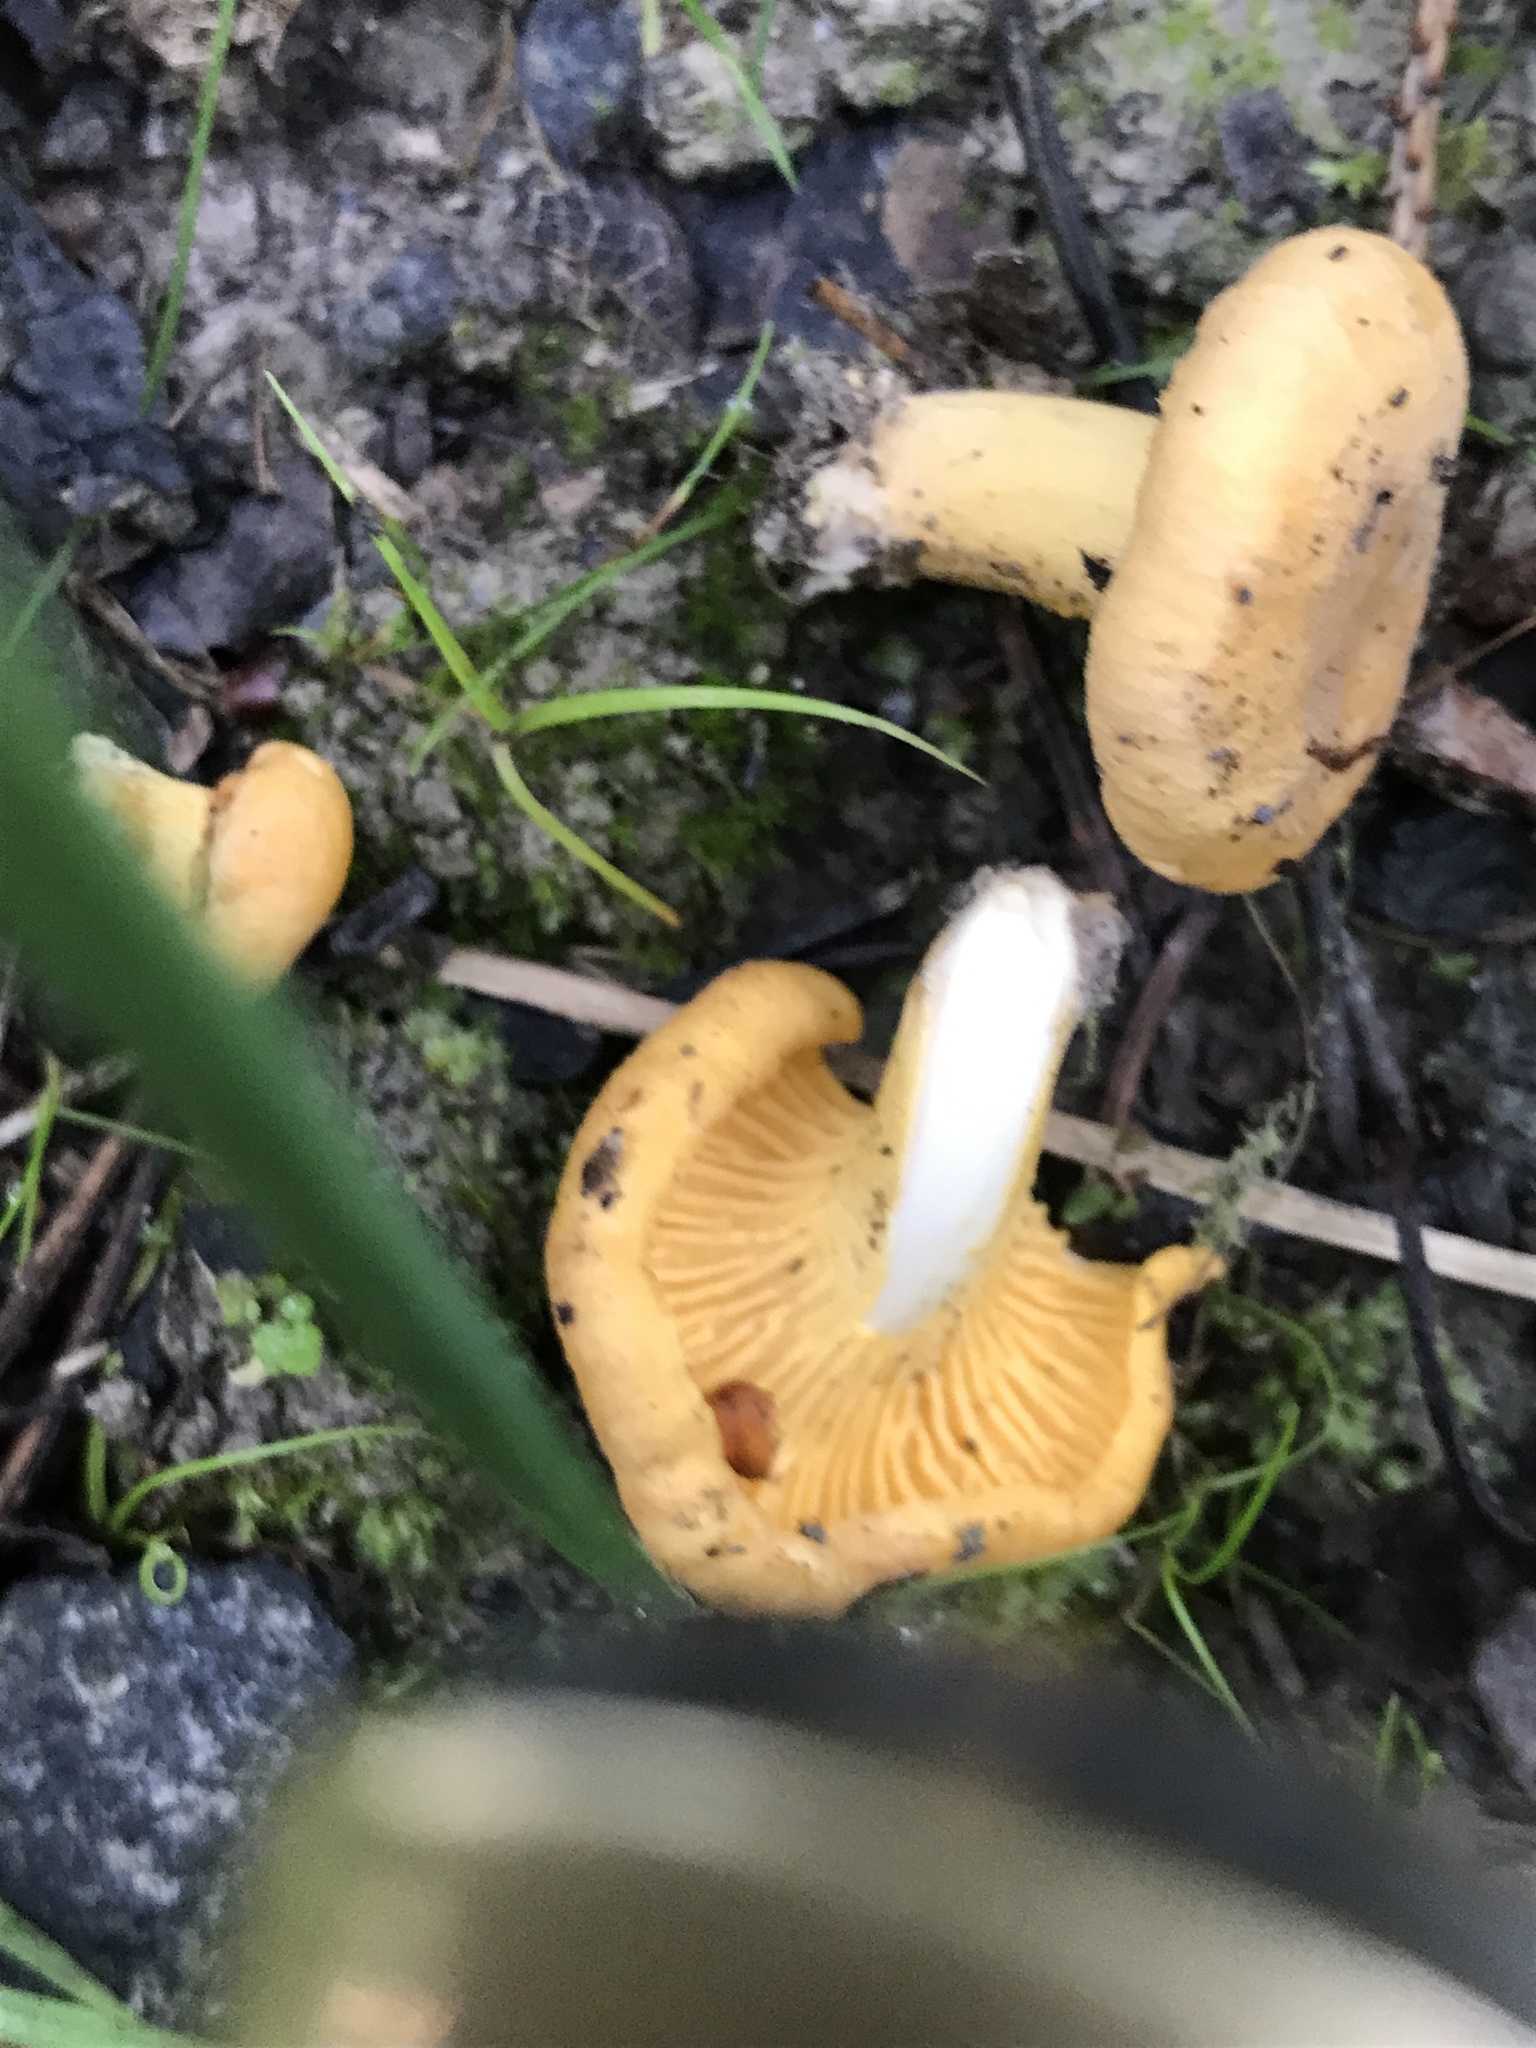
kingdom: Fungi
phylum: Basidiomycota
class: Agaricomycetes
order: Cantharellales
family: Hydnaceae
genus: Cantharellus
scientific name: Cantharellus cibarius
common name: Chanterelle
